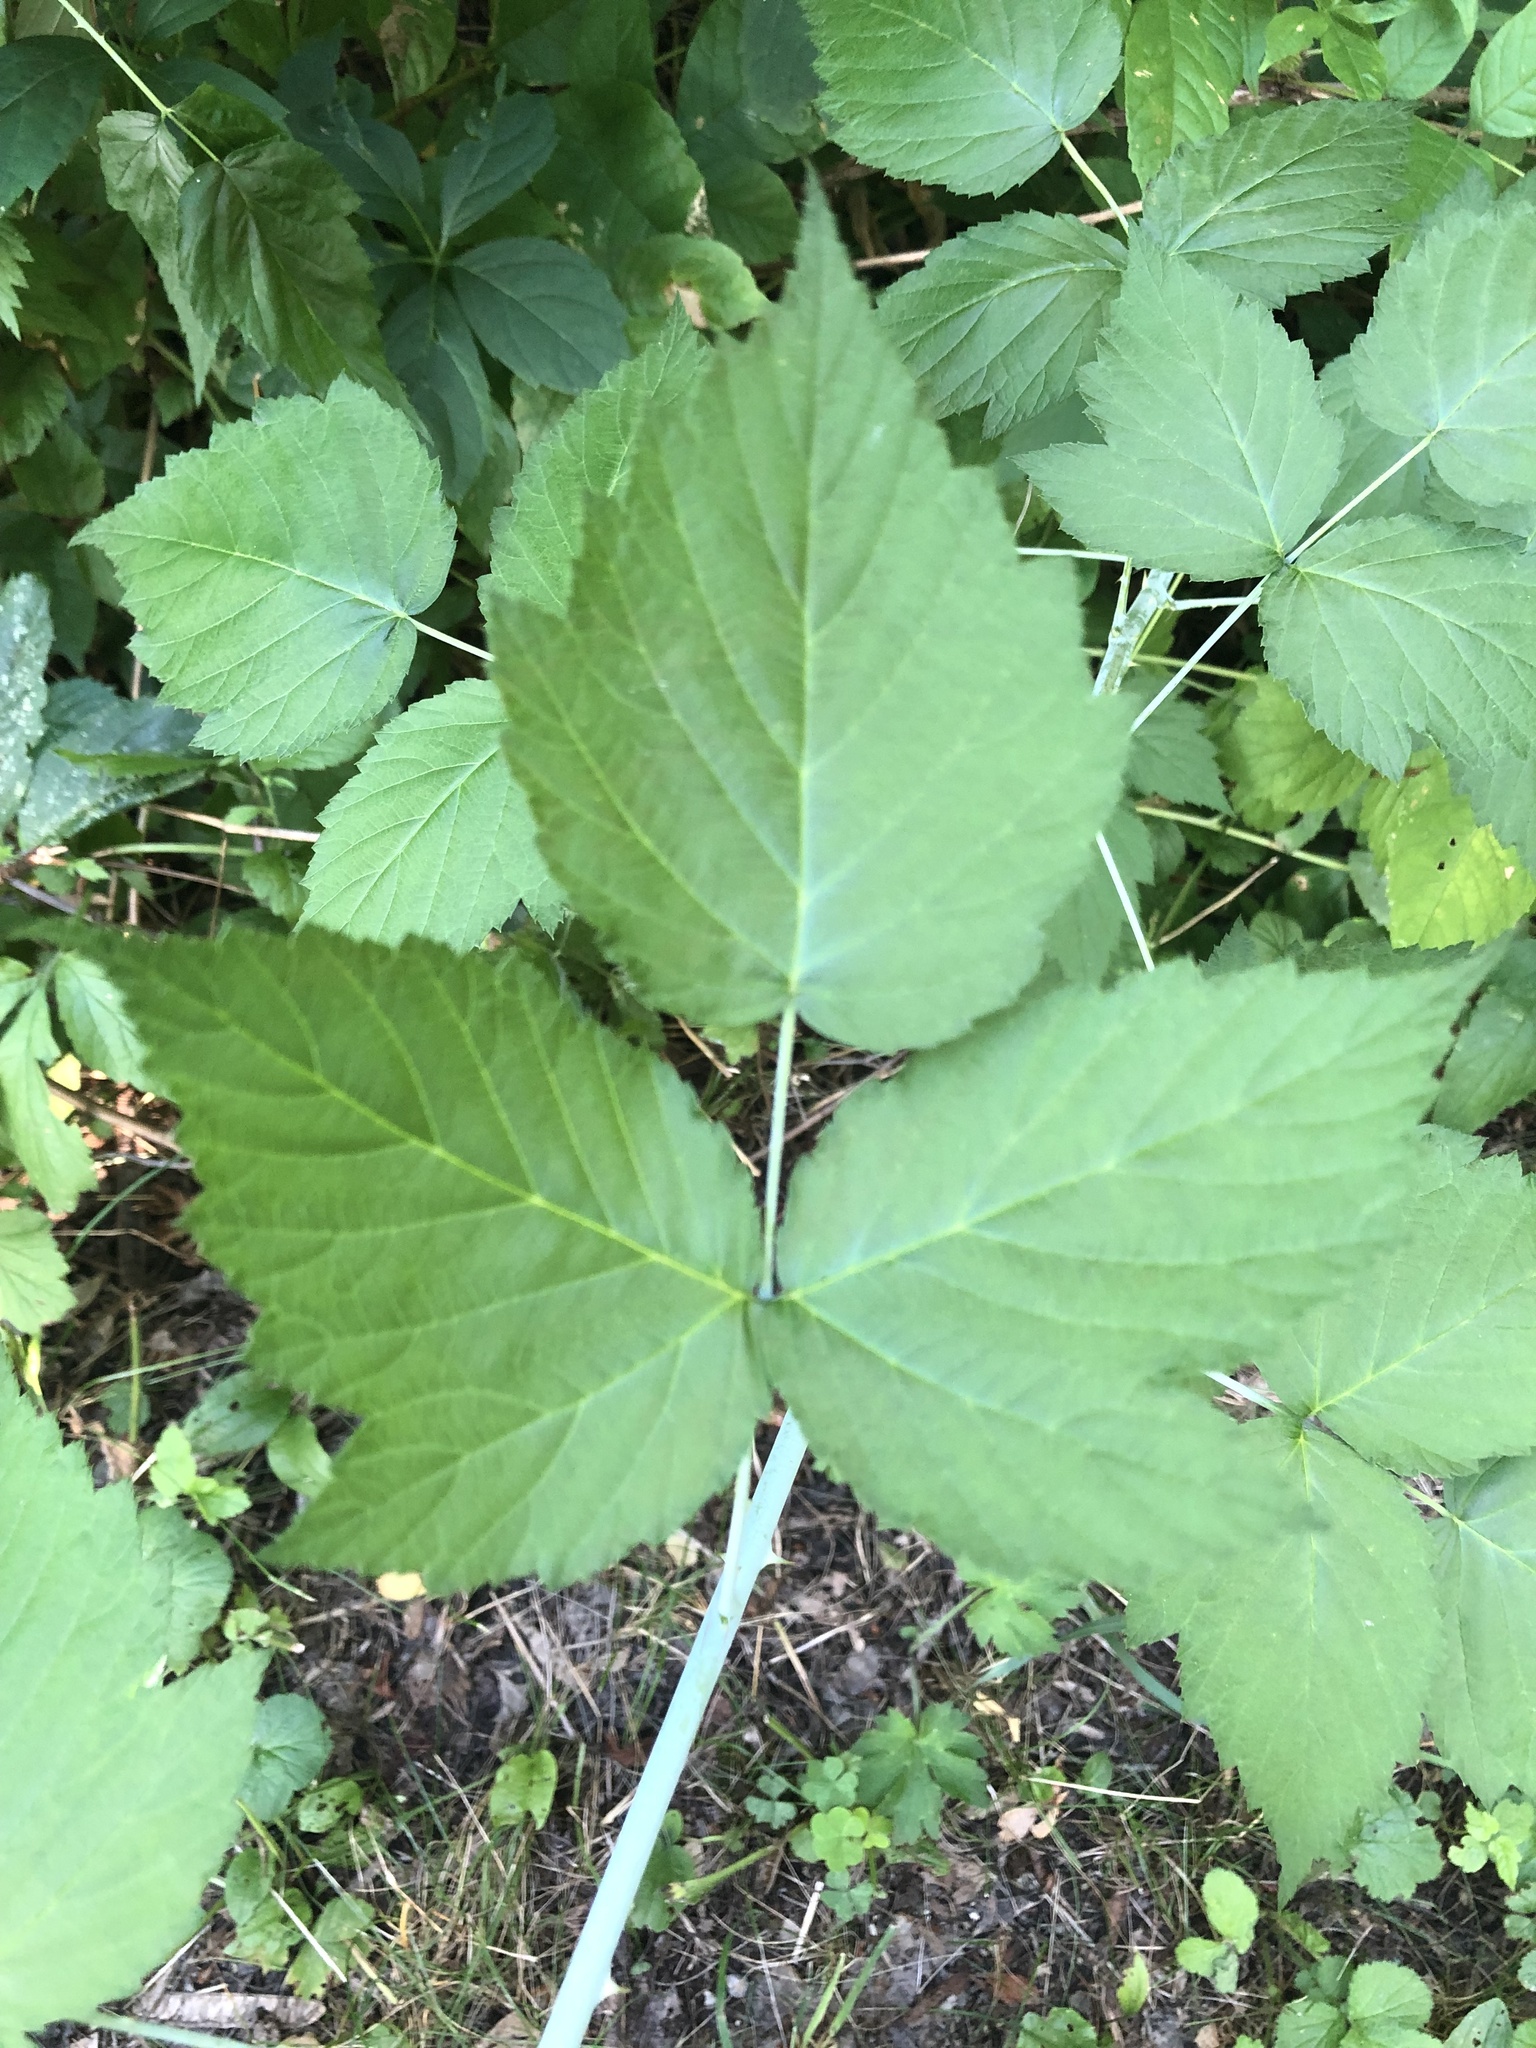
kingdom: Plantae
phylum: Tracheophyta
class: Magnoliopsida
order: Rosales
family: Rosaceae
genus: Rubus
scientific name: Rubus occidentalis
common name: Black raspberry
